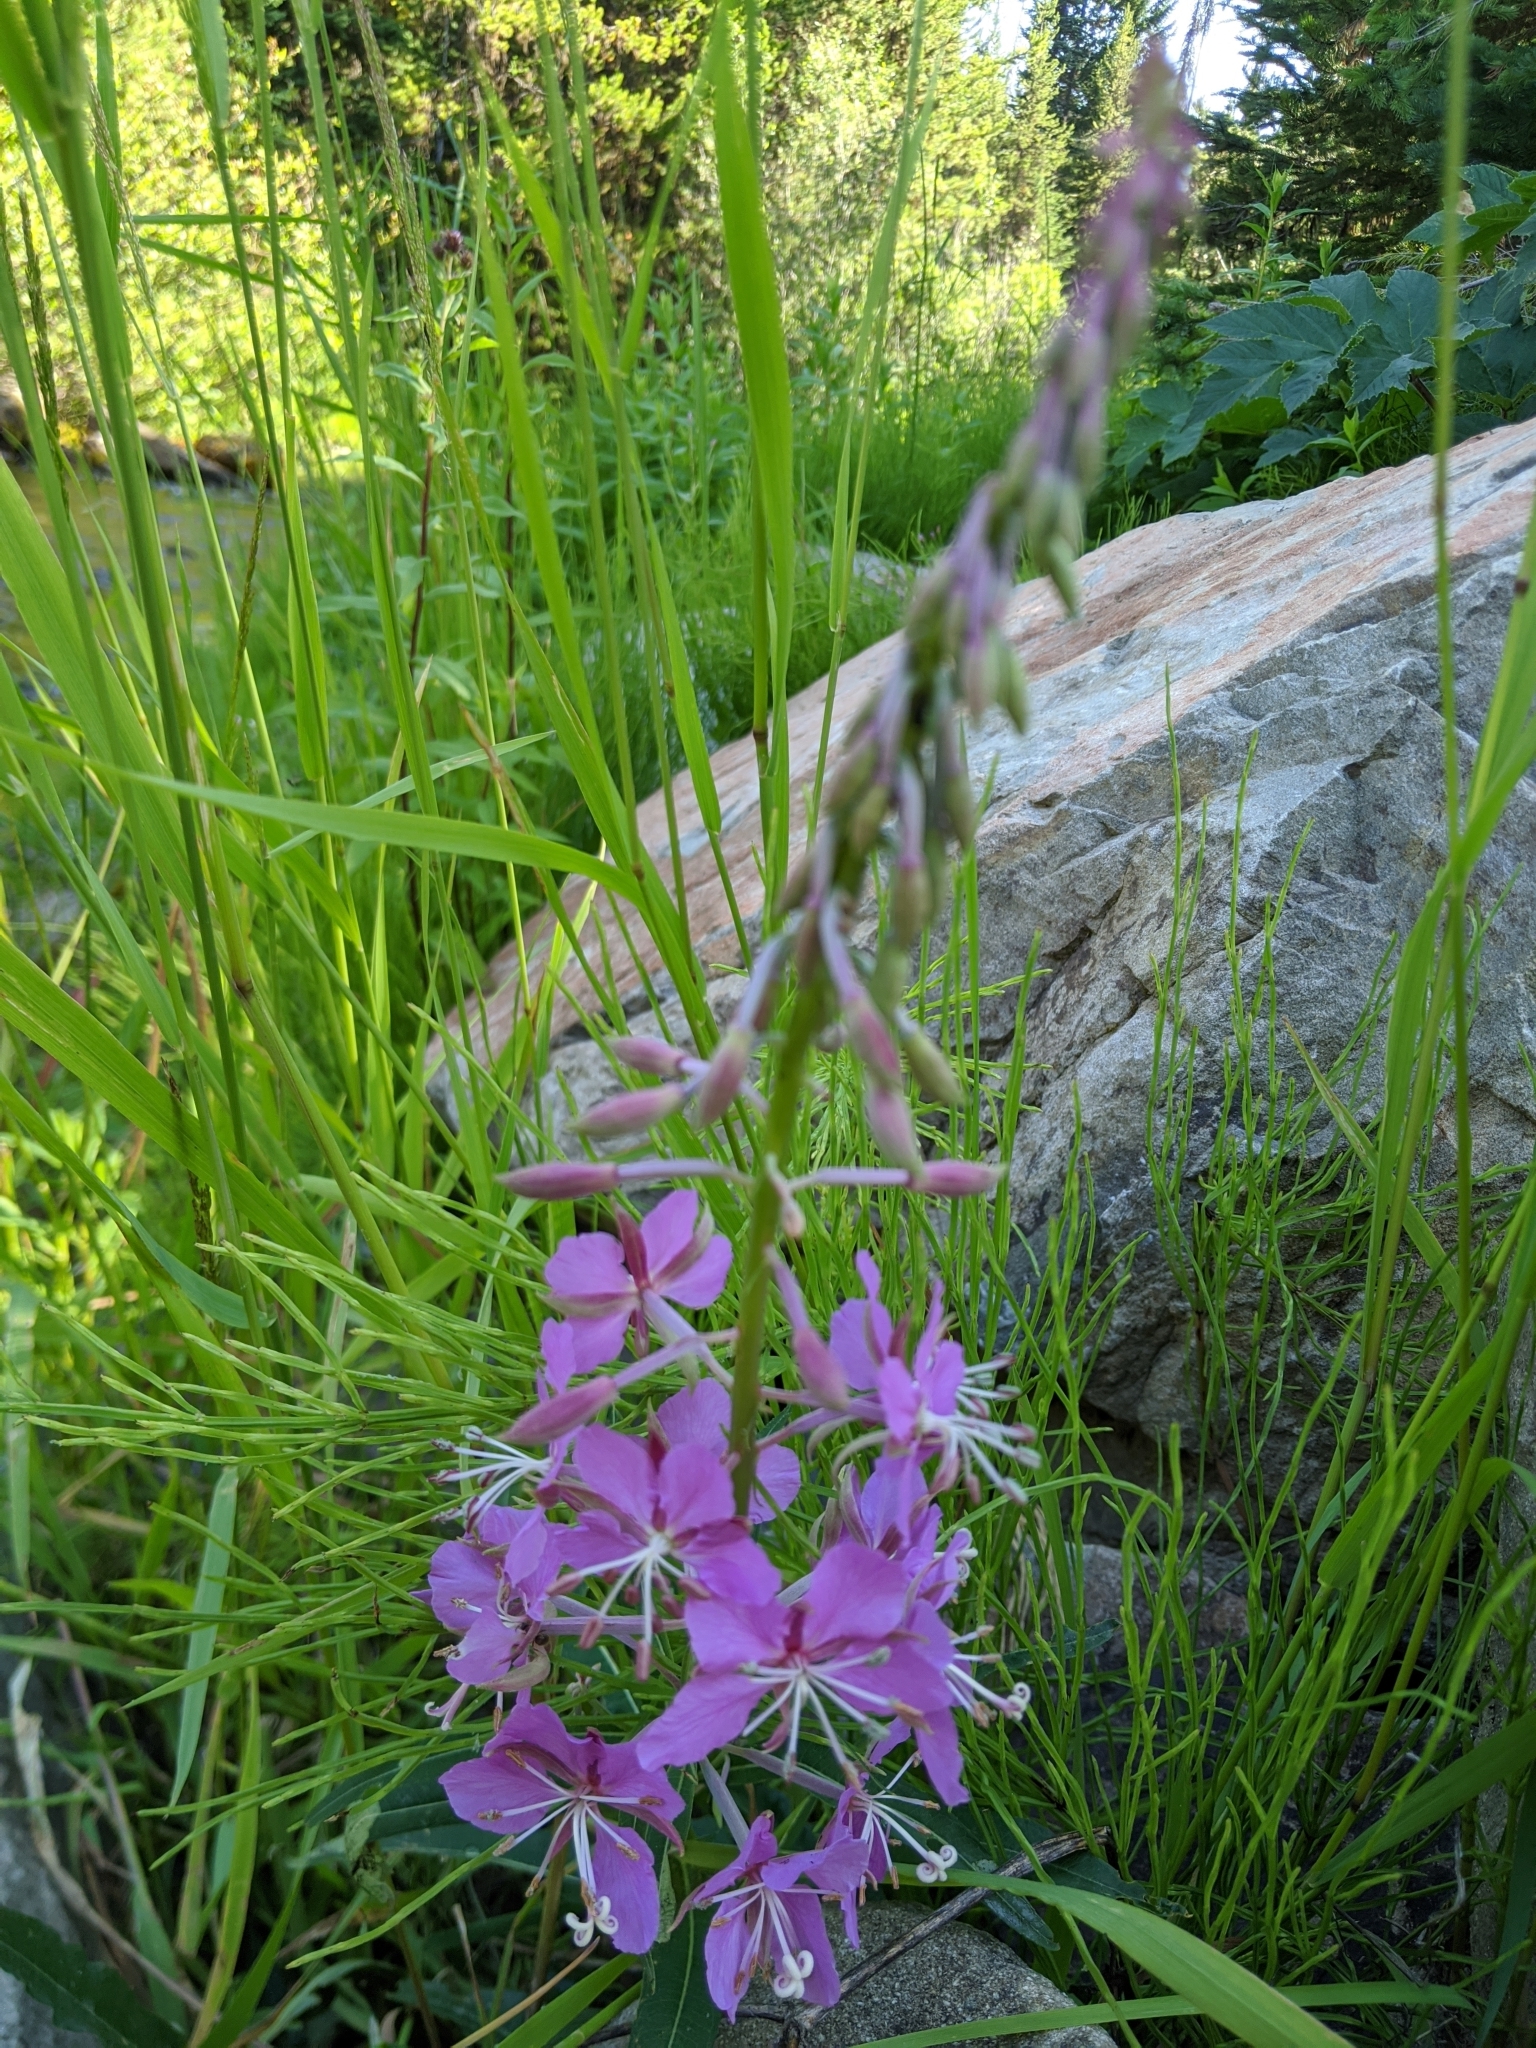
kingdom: Plantae
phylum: Tracheophyta
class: Magnoliopsida
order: Myrtales
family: Onagraceae
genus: Chamaenerion
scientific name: Chamaenerion angustifolium
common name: Fireweed
